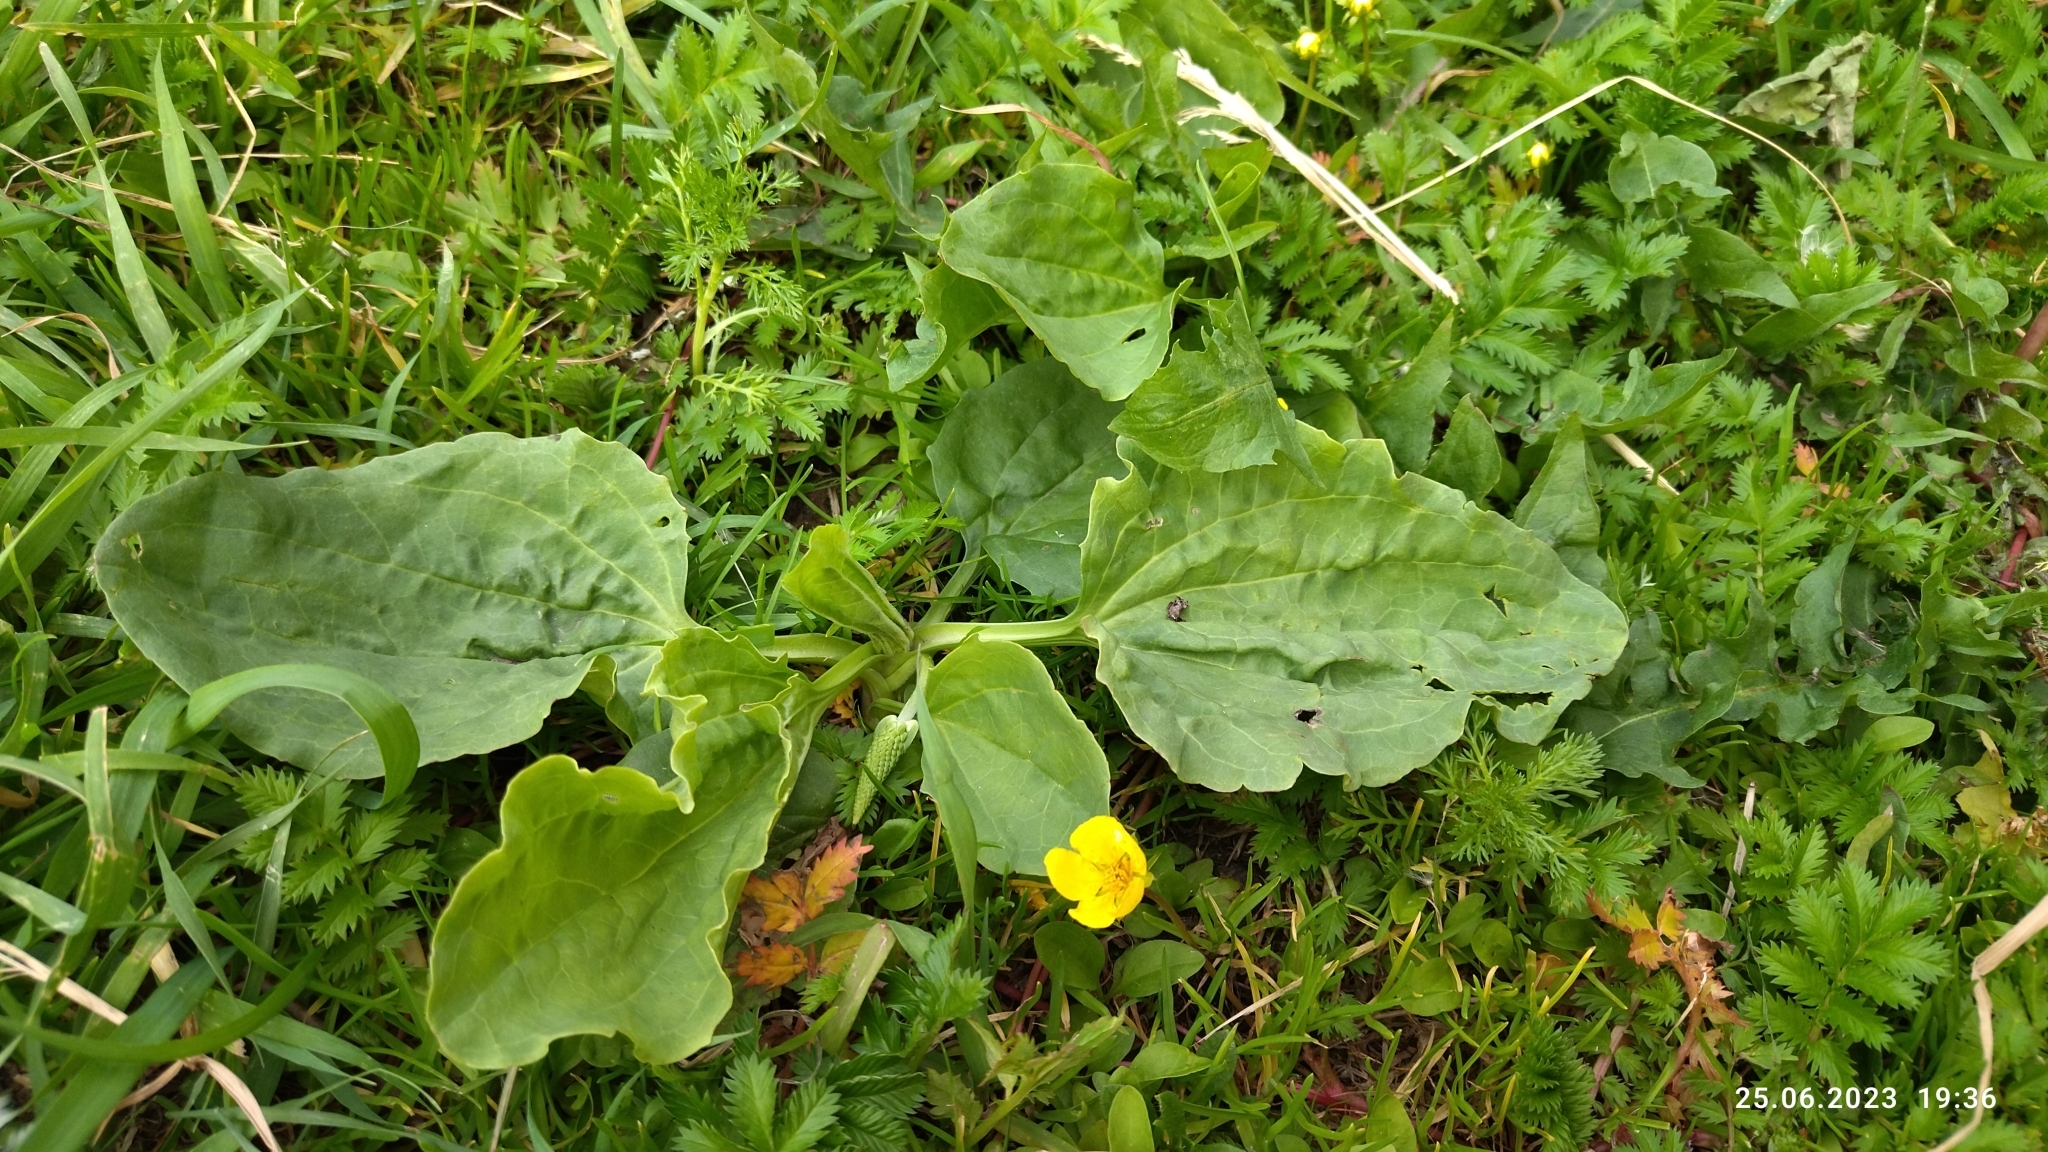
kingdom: Plantae
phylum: Tracheophyta
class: Magnoliopsida
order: Lamiales
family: Plantaginaceae
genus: Plantago
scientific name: Plantago major
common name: Common plantain
